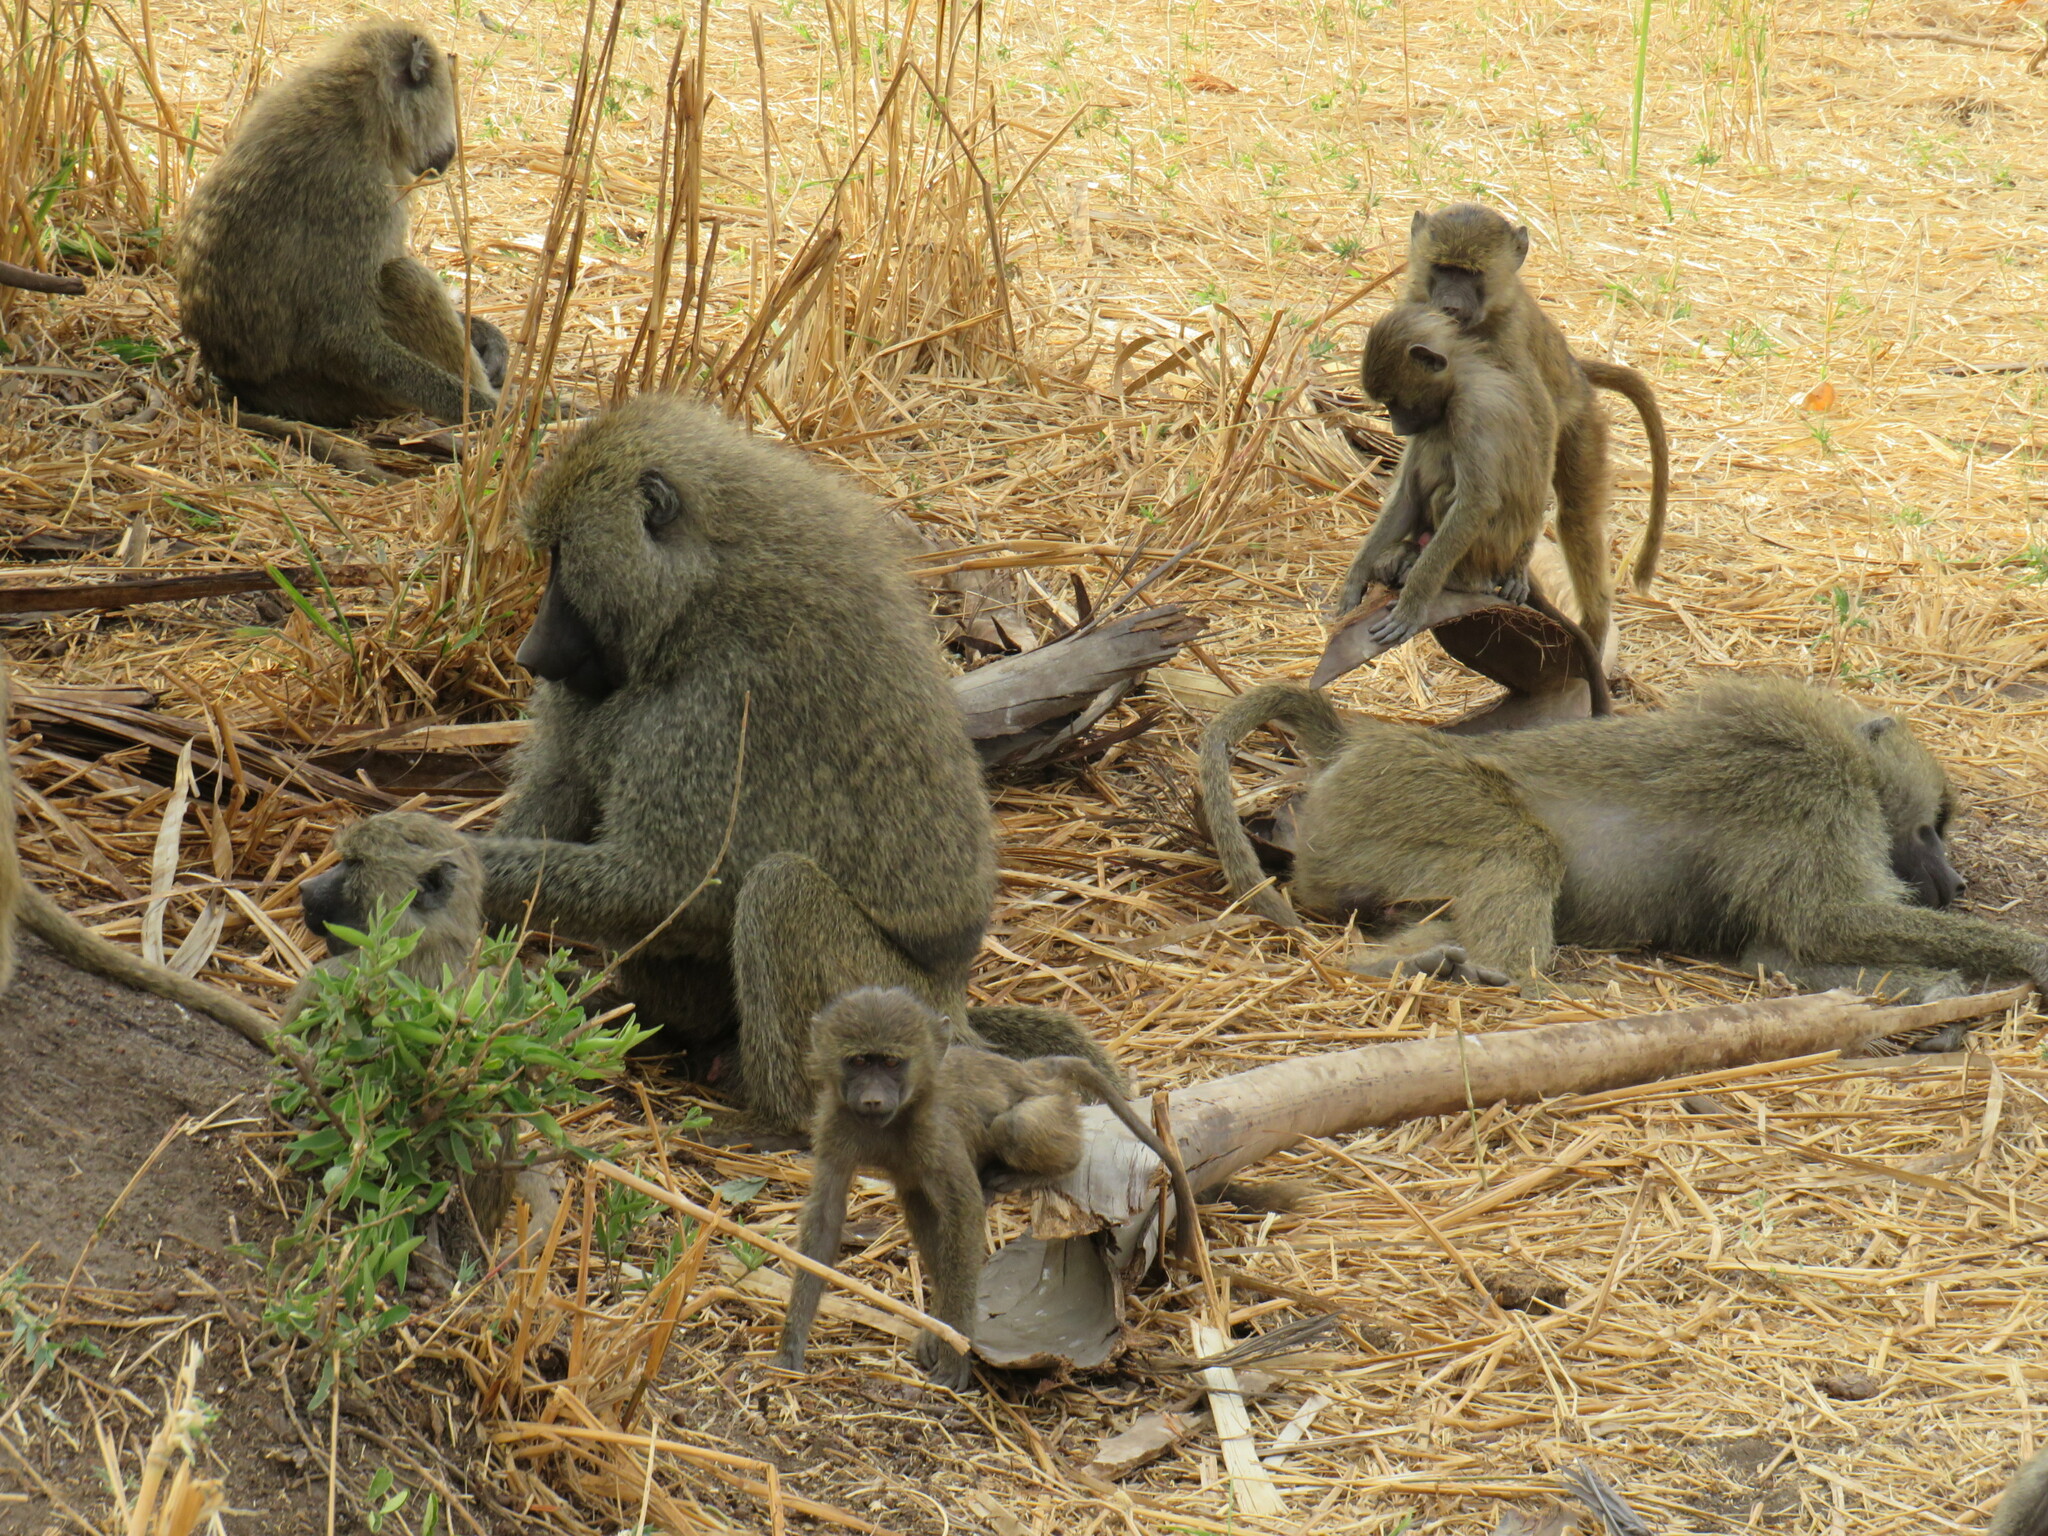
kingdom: Animalia
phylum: Chordata
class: Mammalia
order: Primates
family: Cercopithecidae
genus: Papio
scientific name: Papio anubis
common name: Olive baboon
